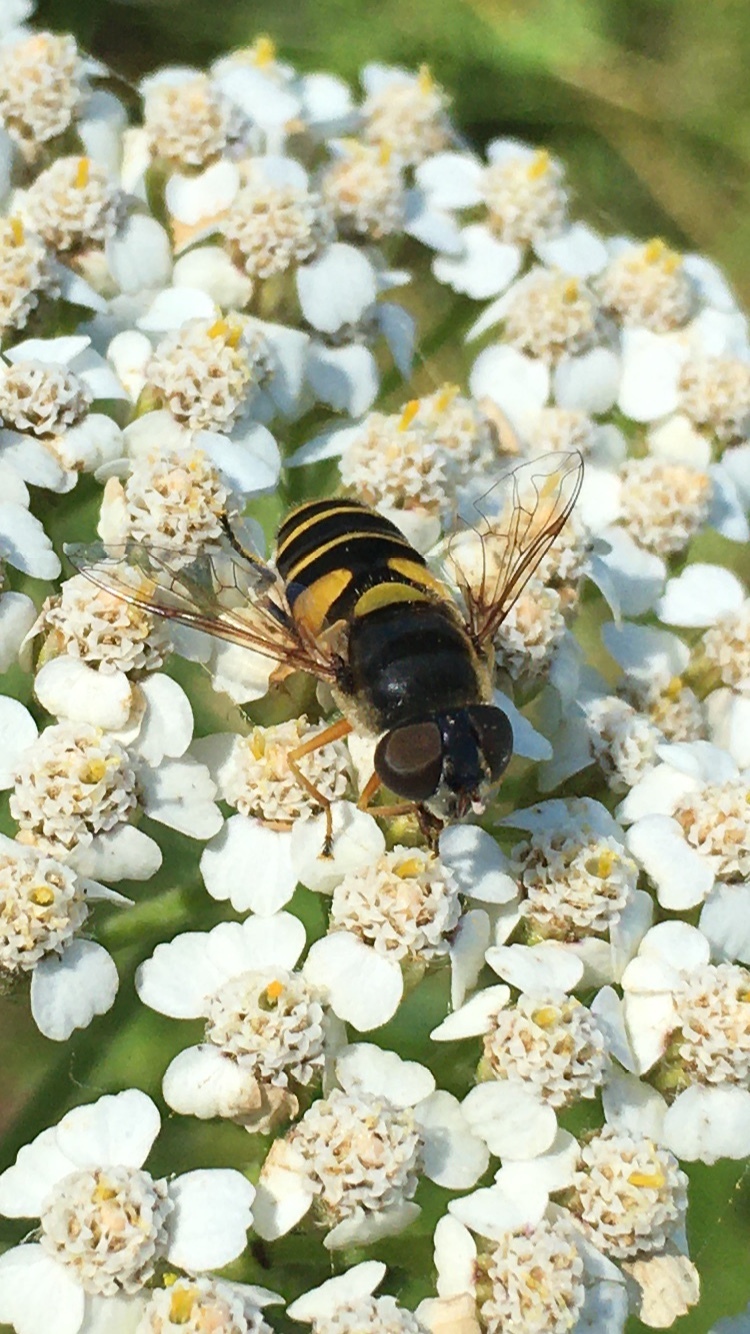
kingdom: Animalia
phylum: Arthropoda
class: Insecta
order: Diptera
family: Syrphidae
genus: Eristalis
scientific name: Eristalis transversa
